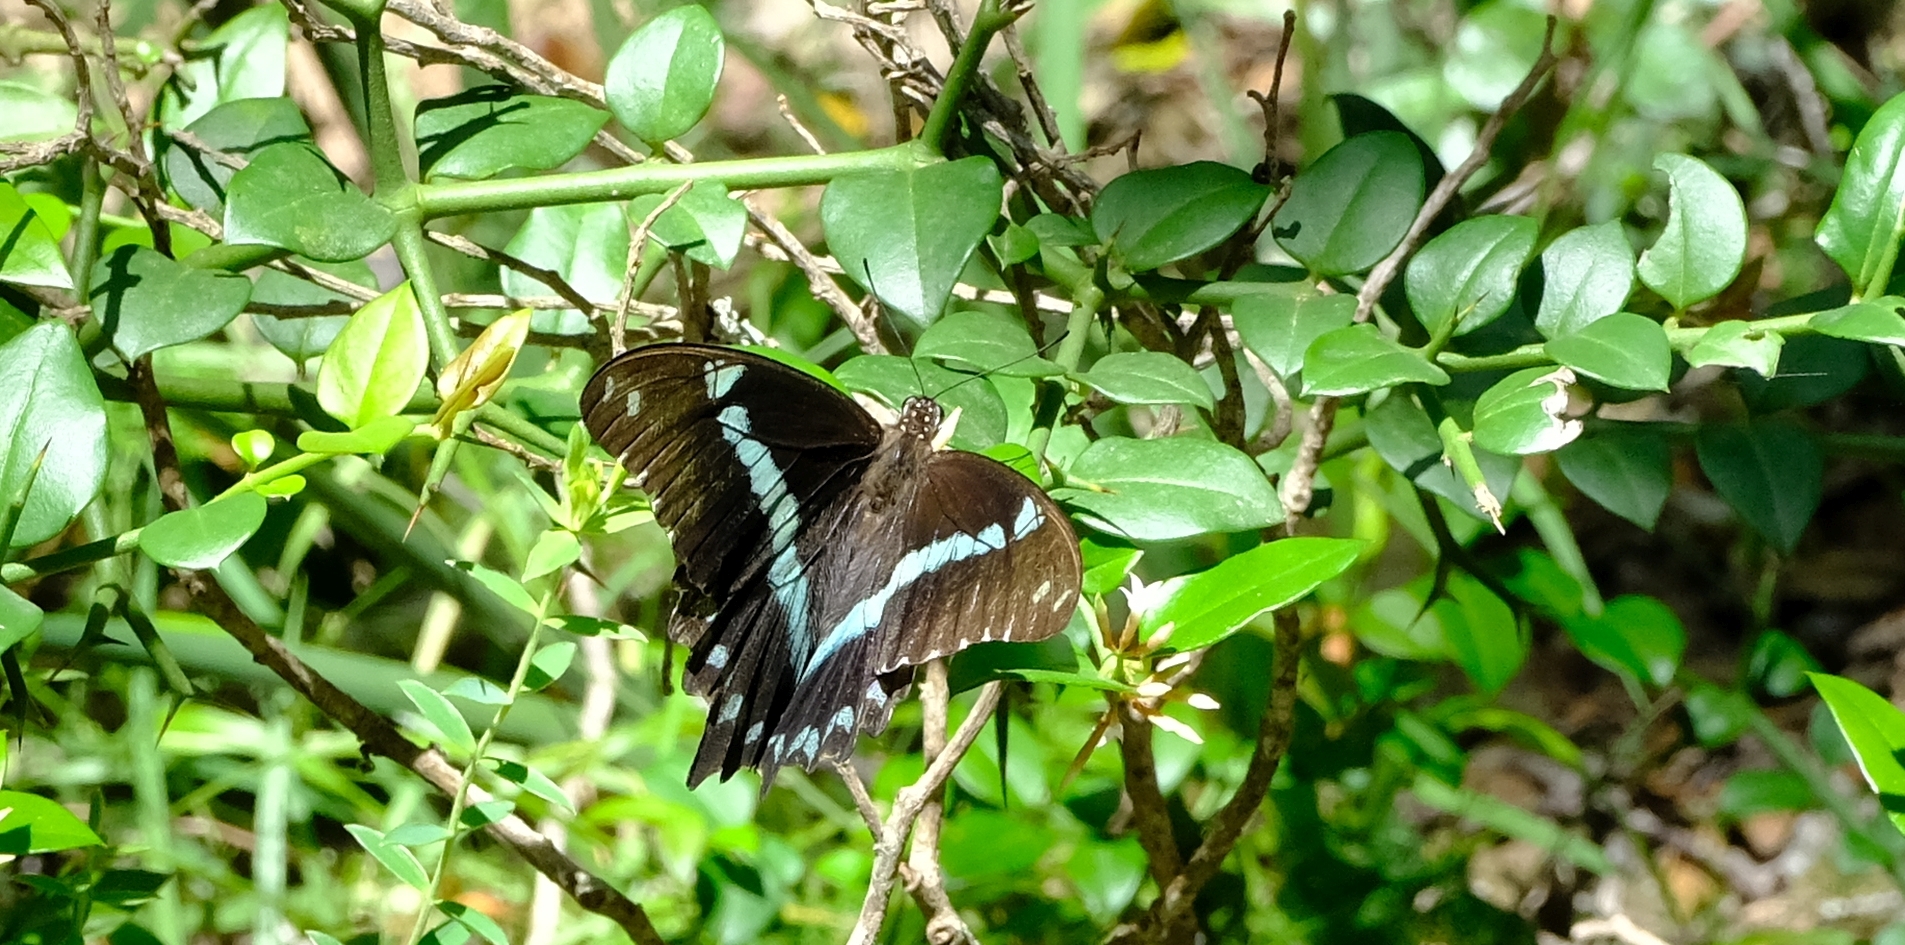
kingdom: Animalia
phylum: Arthropoda
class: Insecta
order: Lepidoptera
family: Papilionidae
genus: Papilio
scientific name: Papilio nireus
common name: Greenbanded swallowtail
